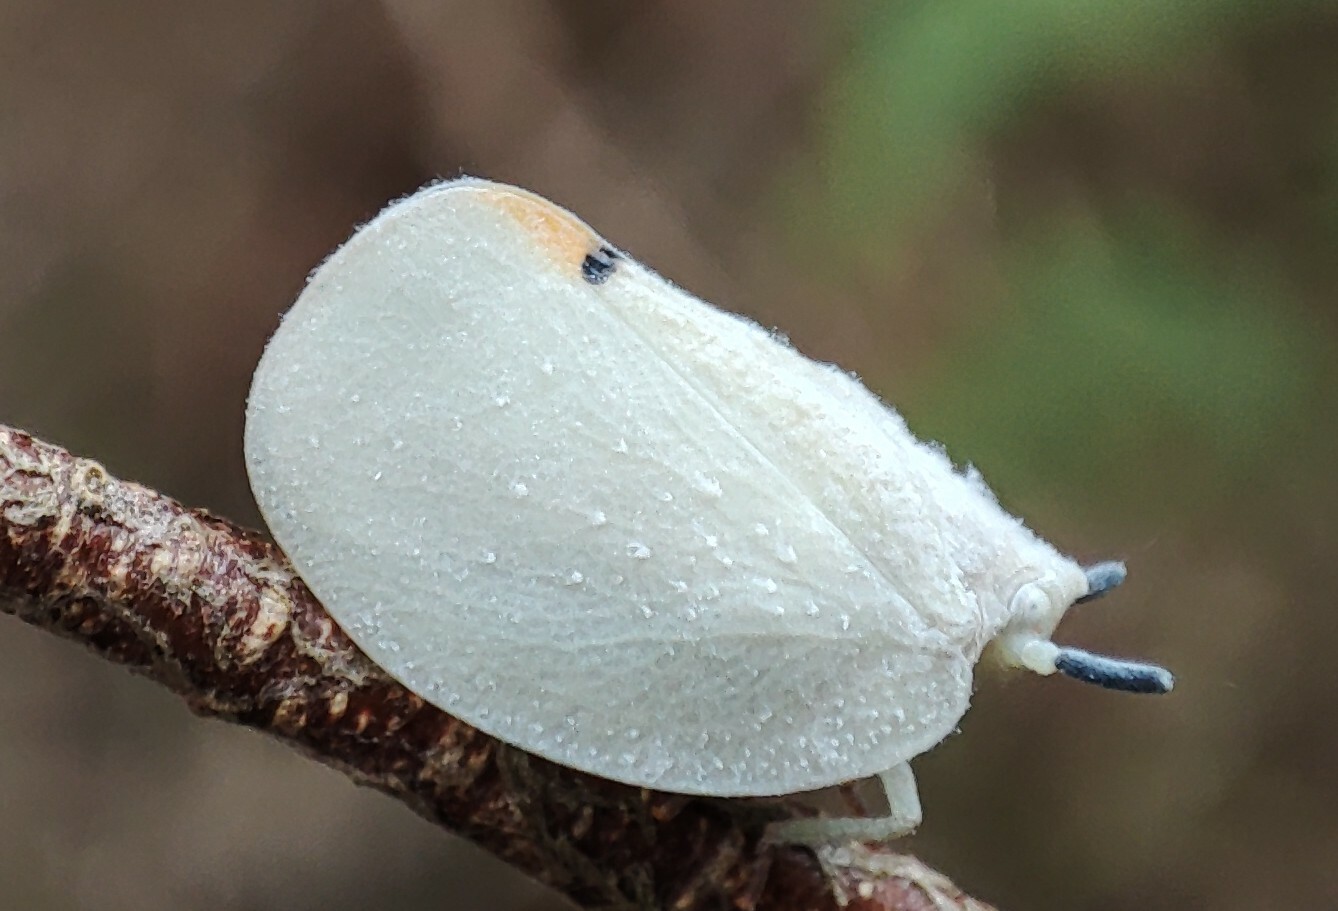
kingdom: Animalia
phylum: Arthropoda
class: Insecta
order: Hemiptera
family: Flatidae
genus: Dalapax
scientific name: Dalapax postica
